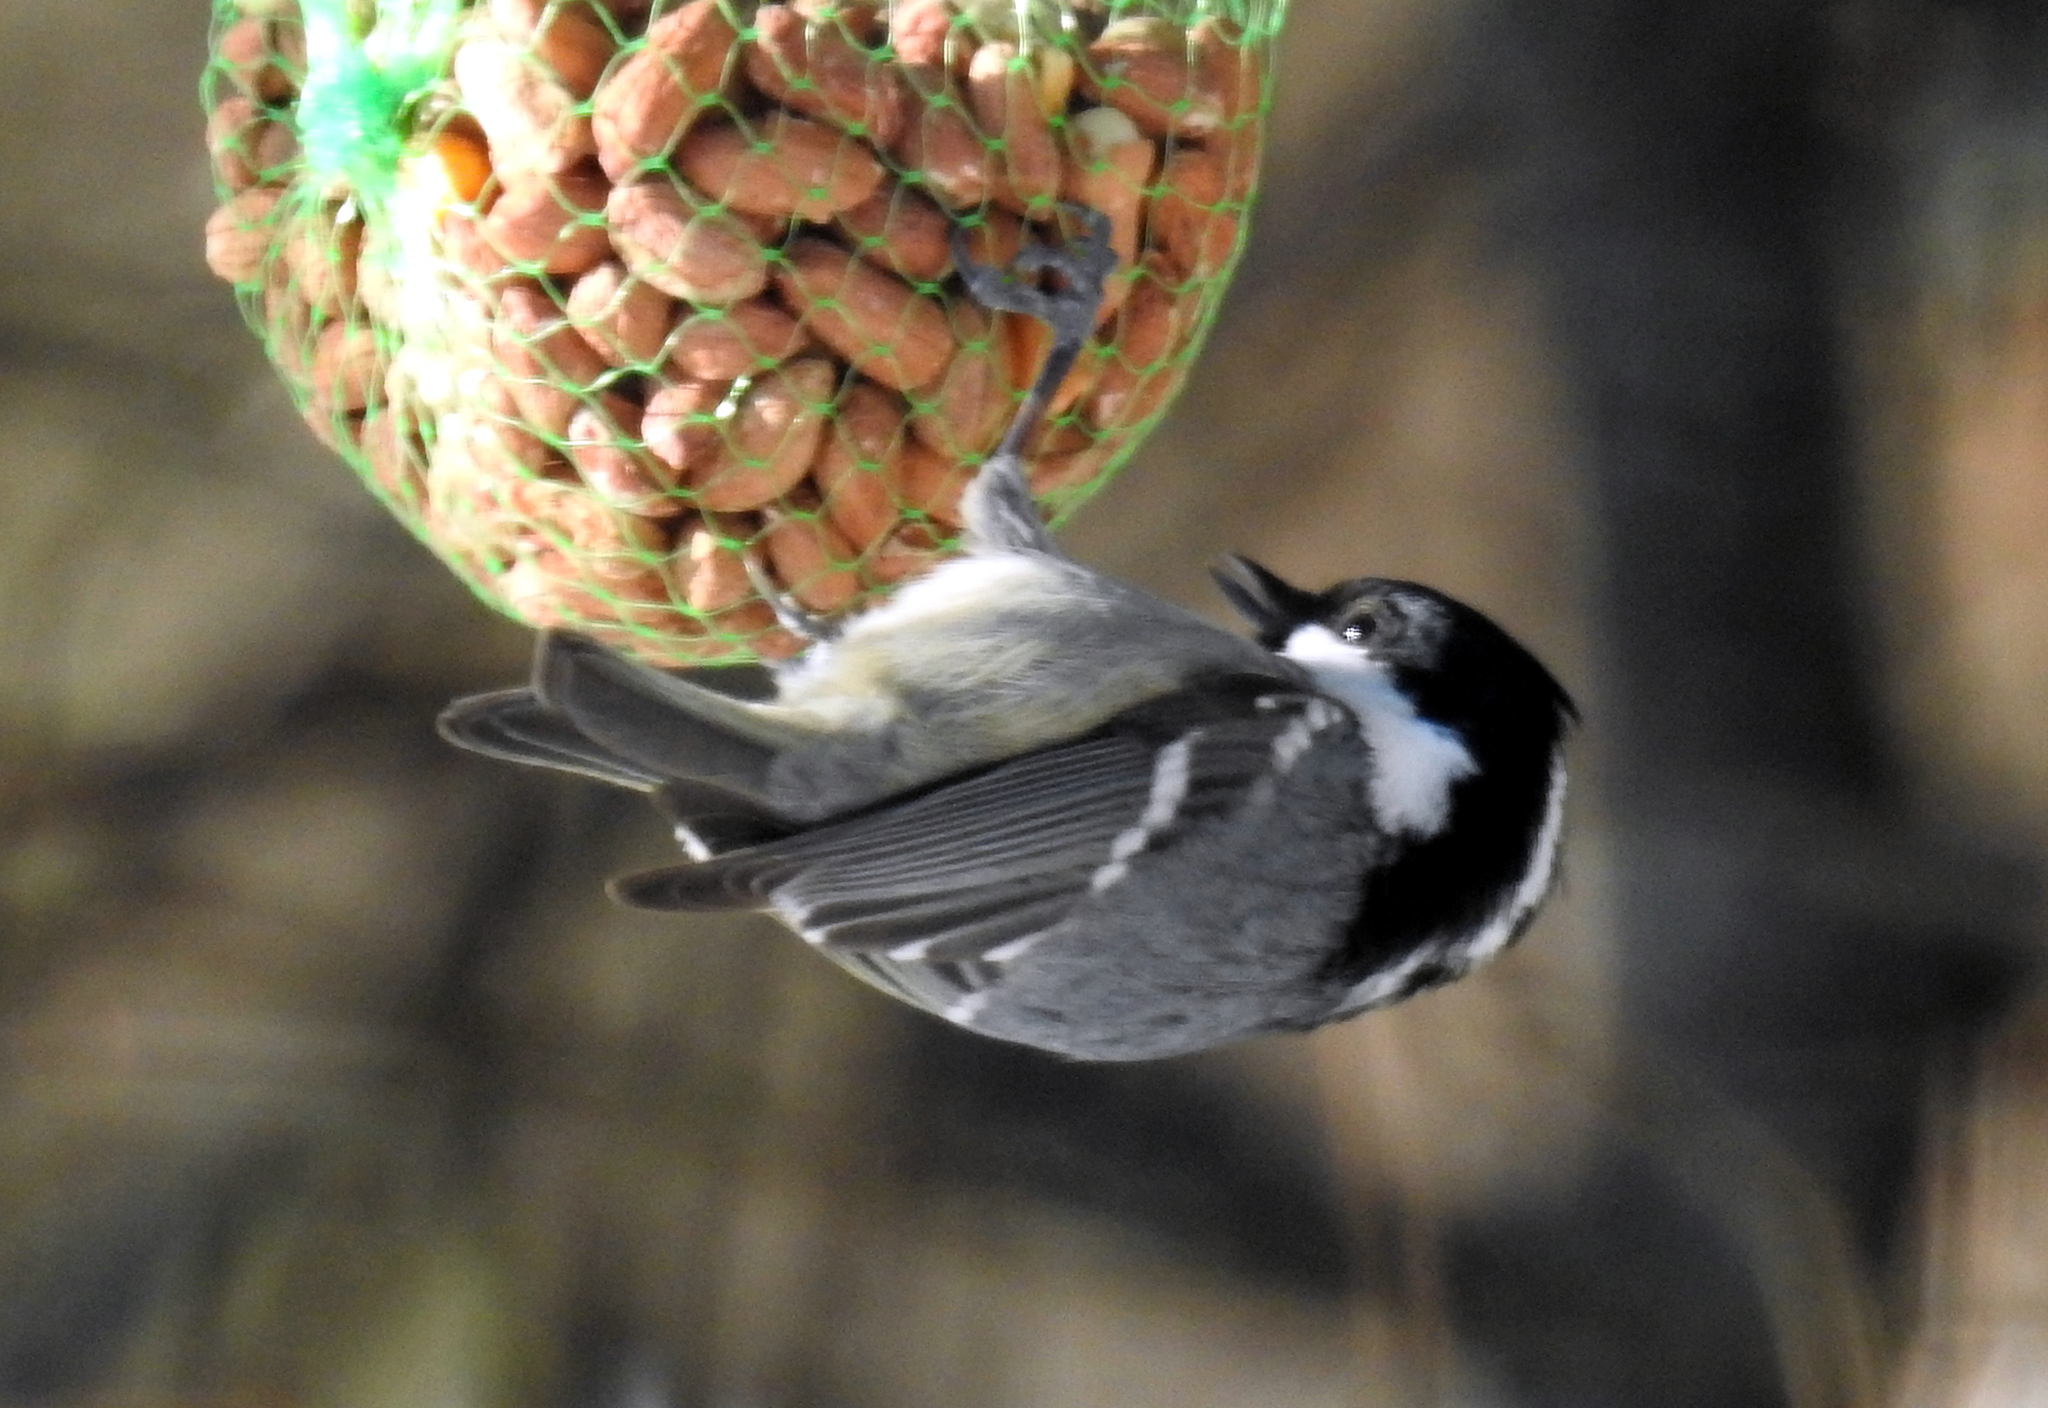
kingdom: Animalia
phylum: Chordata
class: Aves
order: Passeriformes
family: Paridae
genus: Periparus
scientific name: Periparus ater
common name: Coal tit
